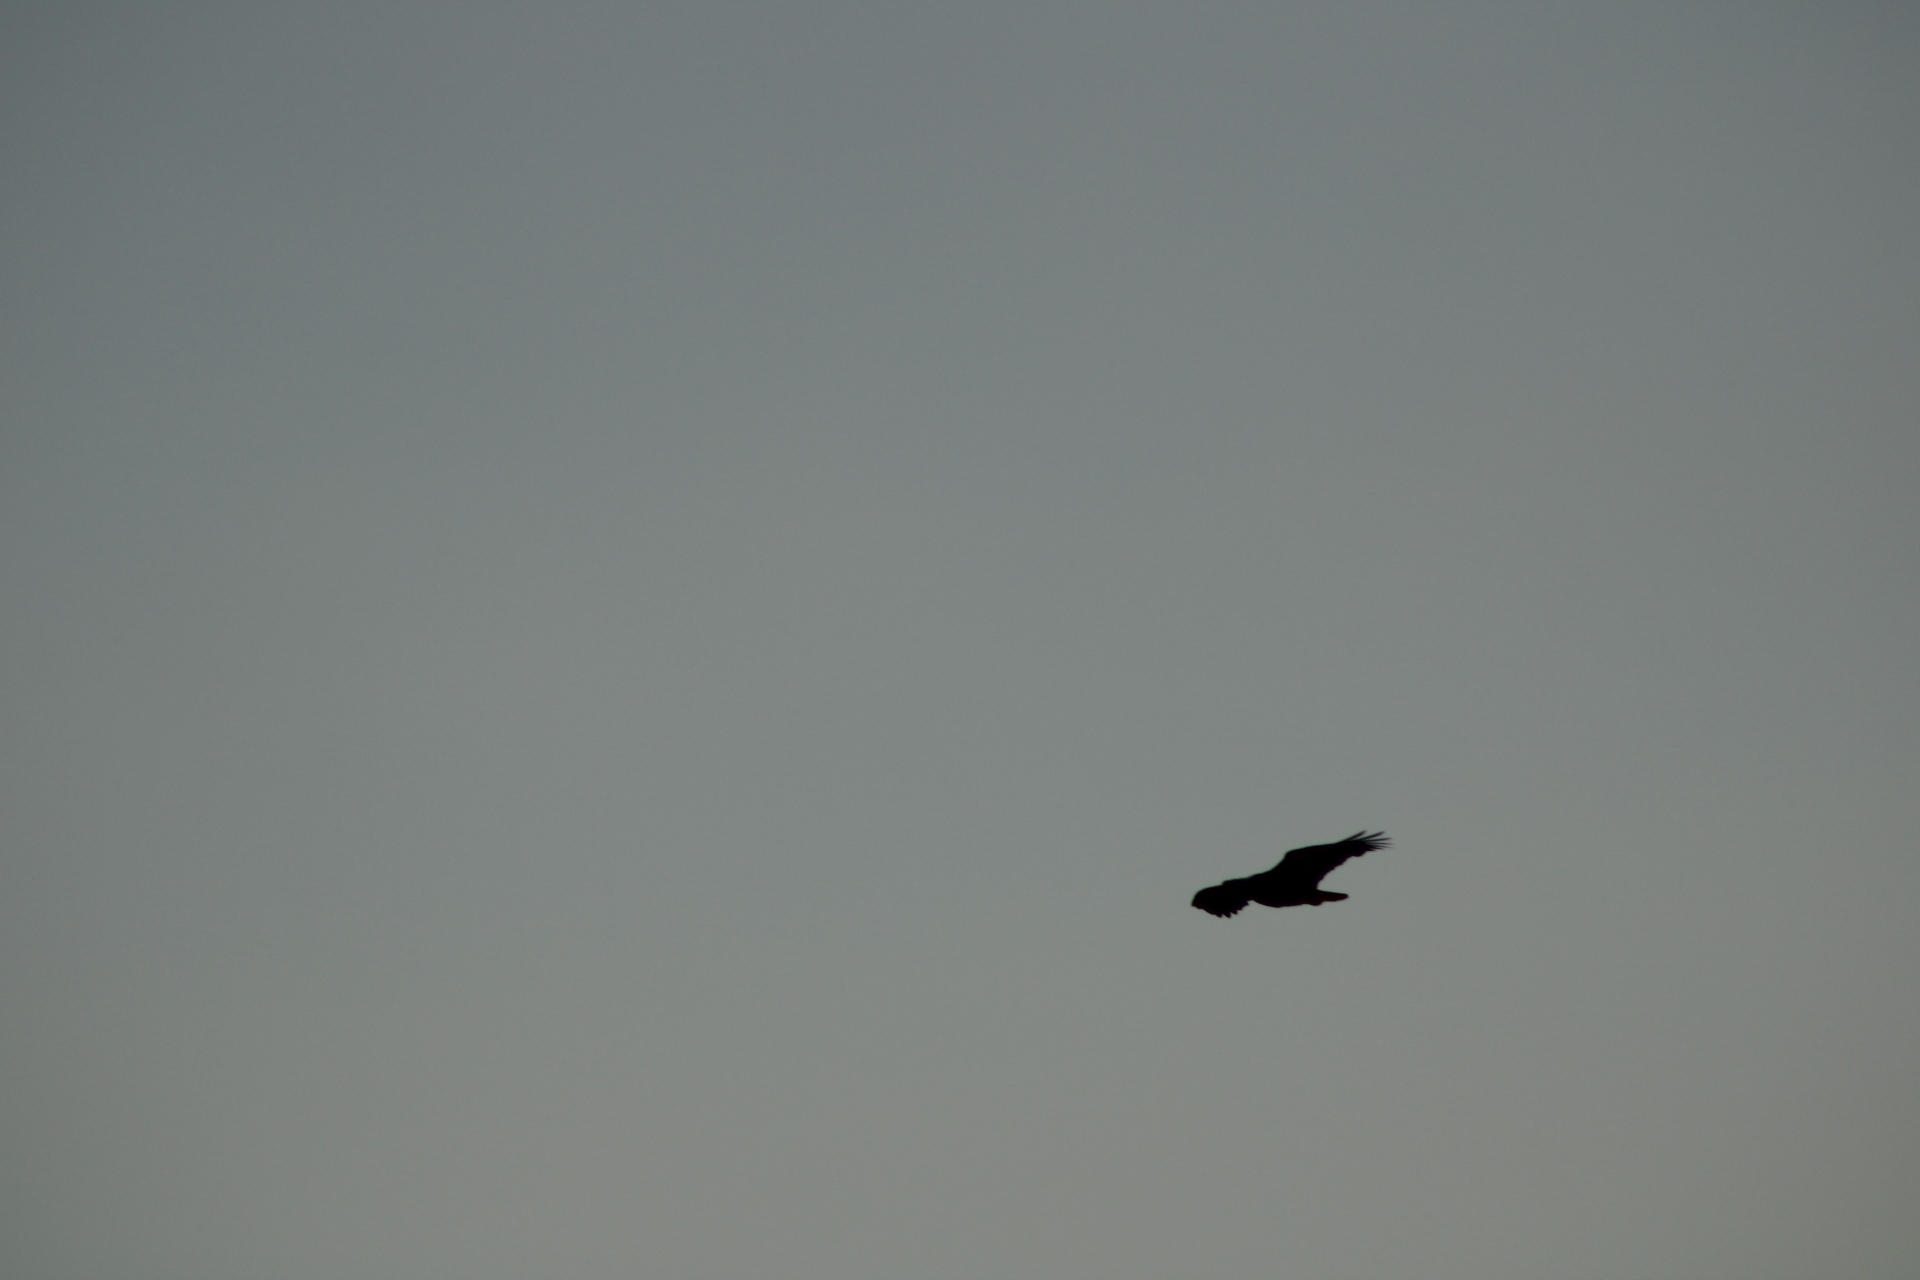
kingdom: Animalia
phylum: Chordata
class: Aves
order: Accipitriformes
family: Accipitridae
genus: Haliaeetus
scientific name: Haliaeetus leucocephalus
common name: Bald eagle
